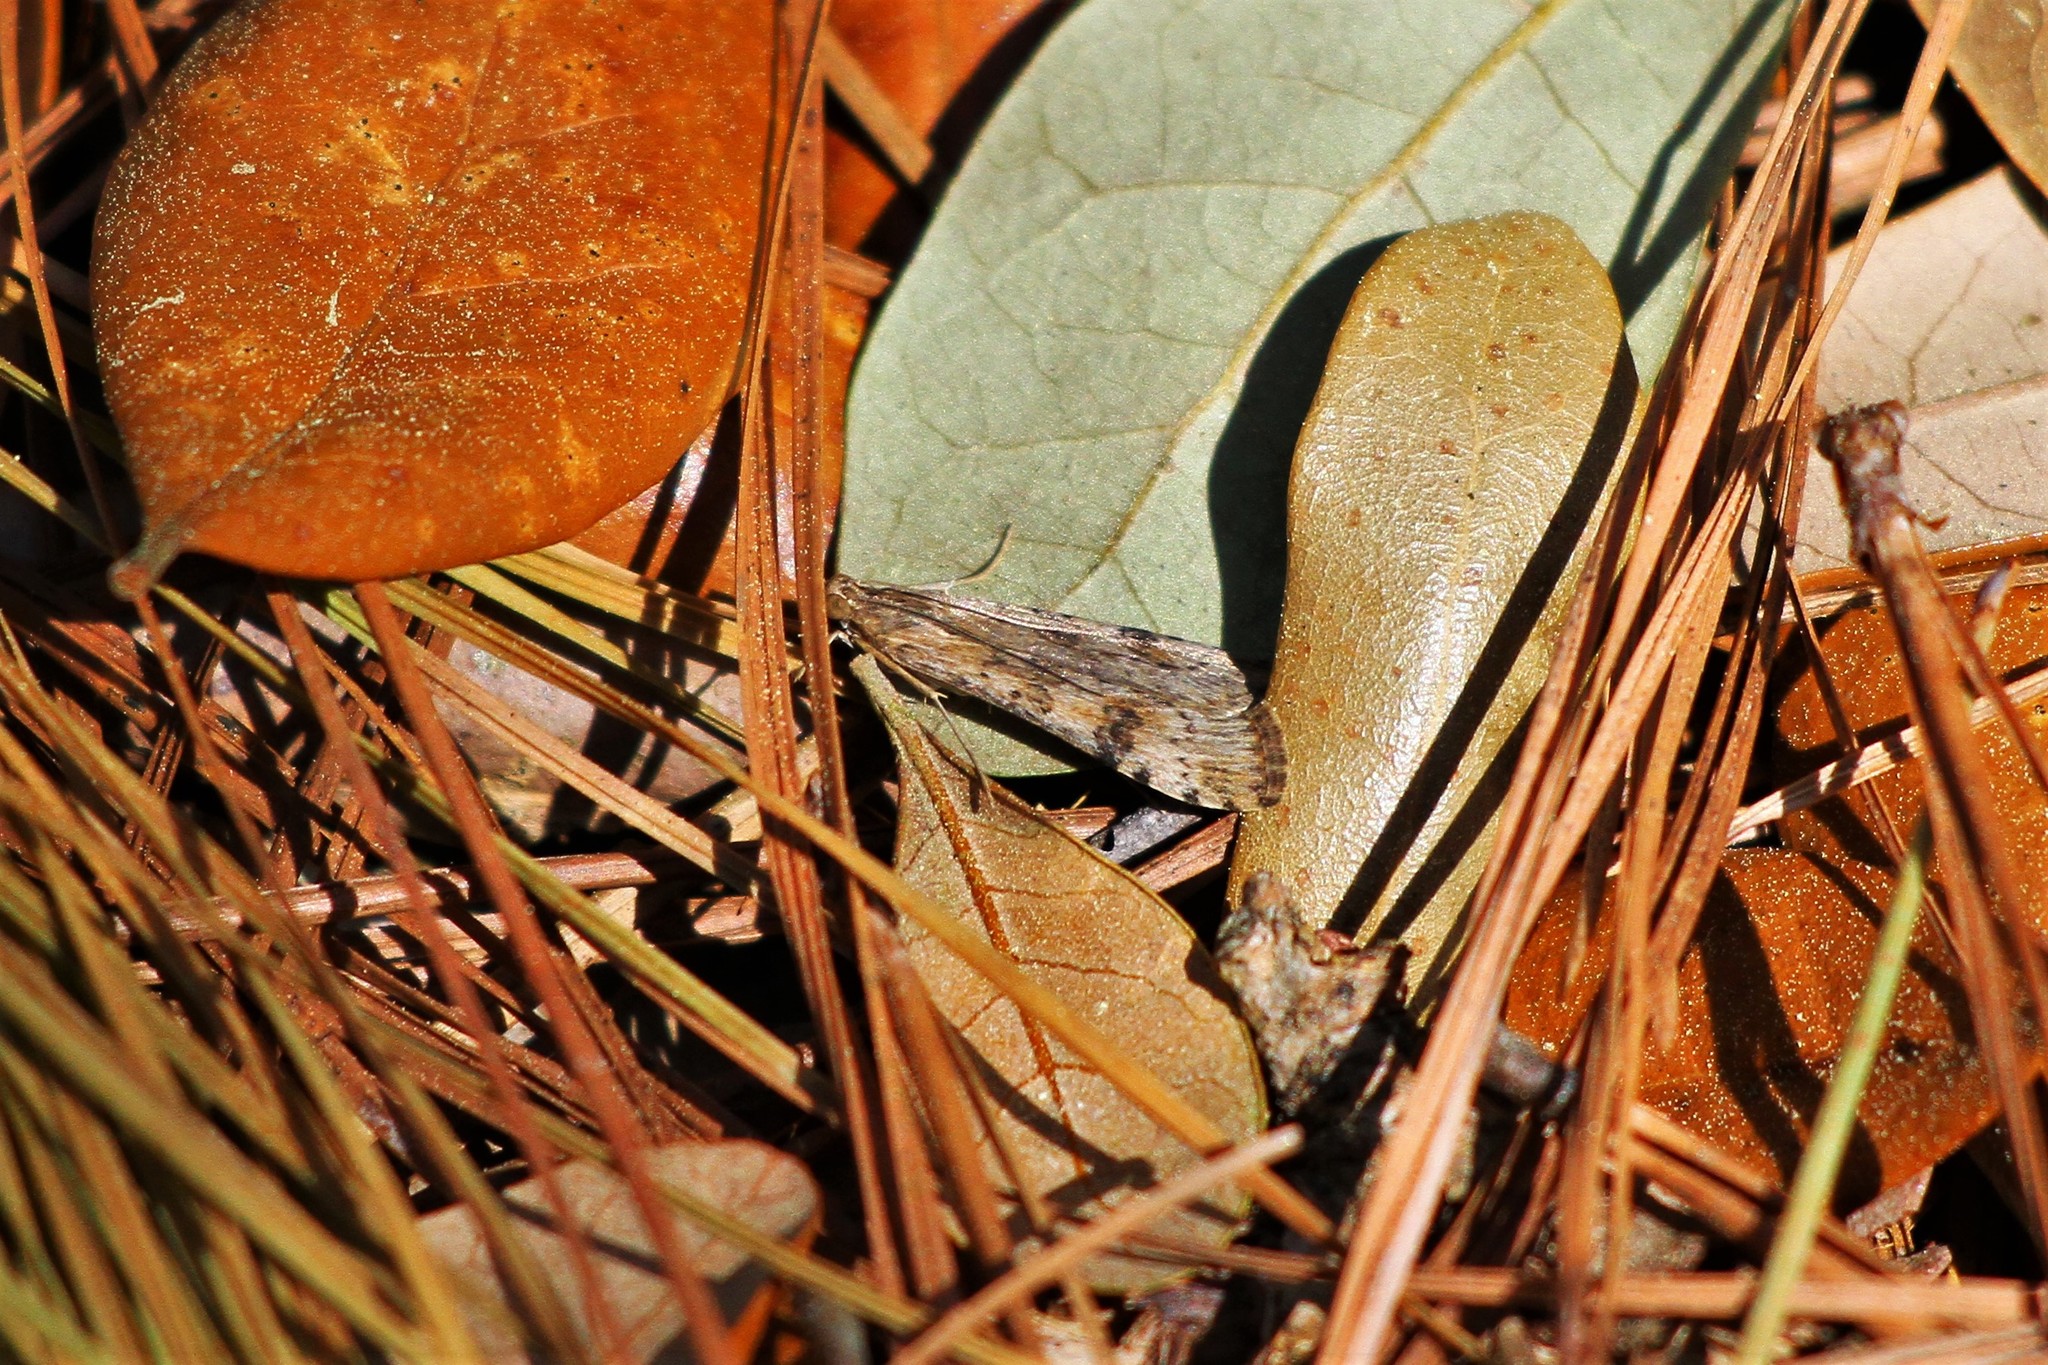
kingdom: Animalia
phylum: Arthropoda
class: Insecta
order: Lepidoptera
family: Crambidae
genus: Nomophila
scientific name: Nomophila nearctica
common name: American rush veneer
